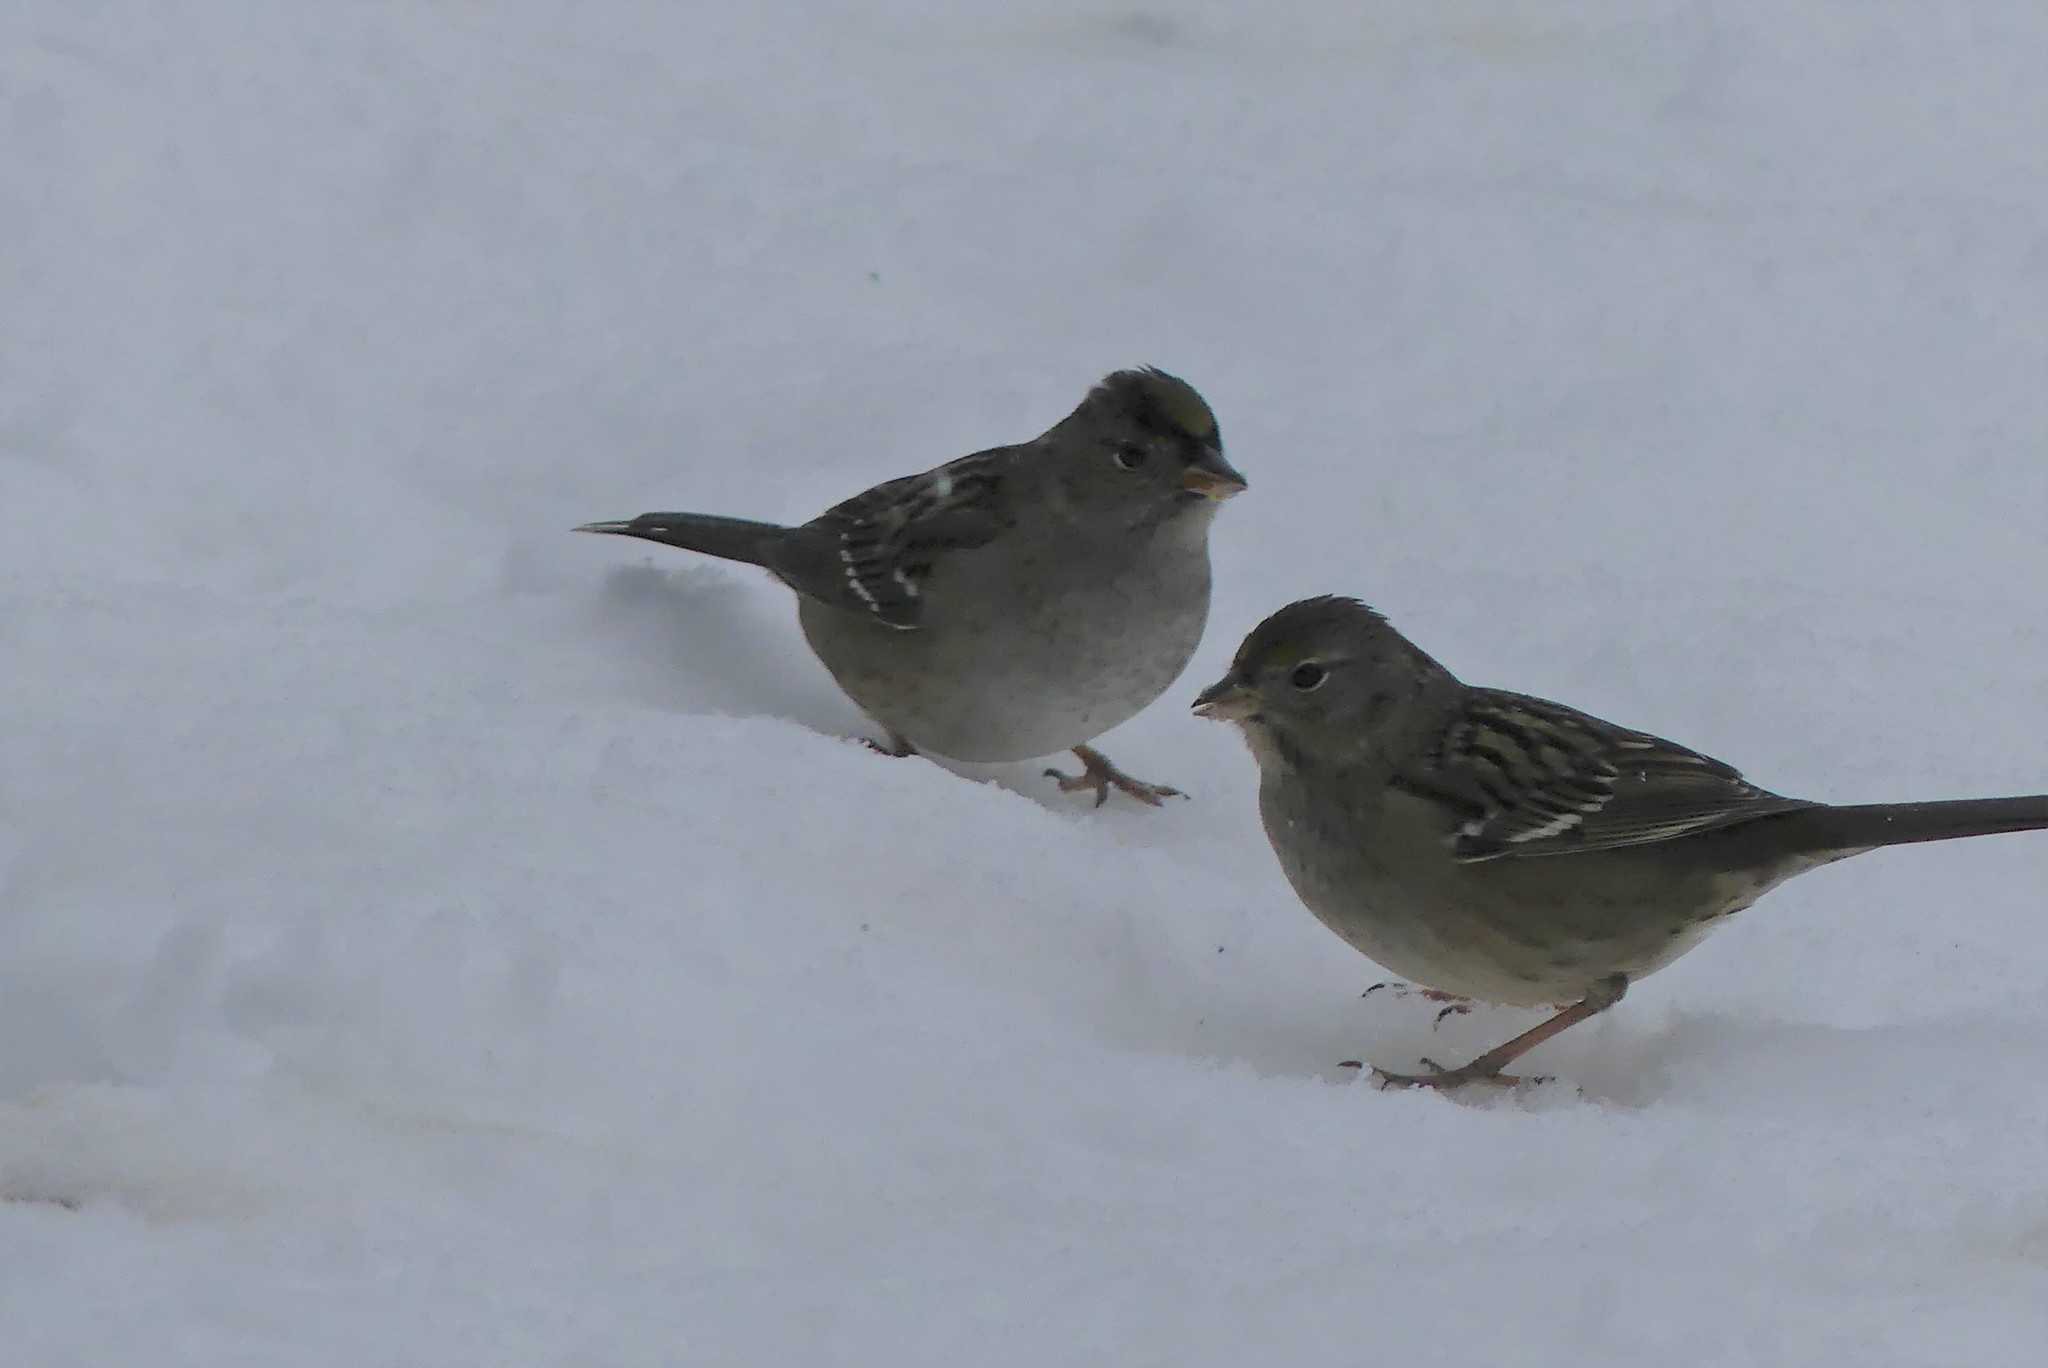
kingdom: Animalia
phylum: Chordata
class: Aves
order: Passeriformes
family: Passerellidae
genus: Zonotrichia
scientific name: Zonotrichia atricapilla
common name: Golden-crowned sparrow
